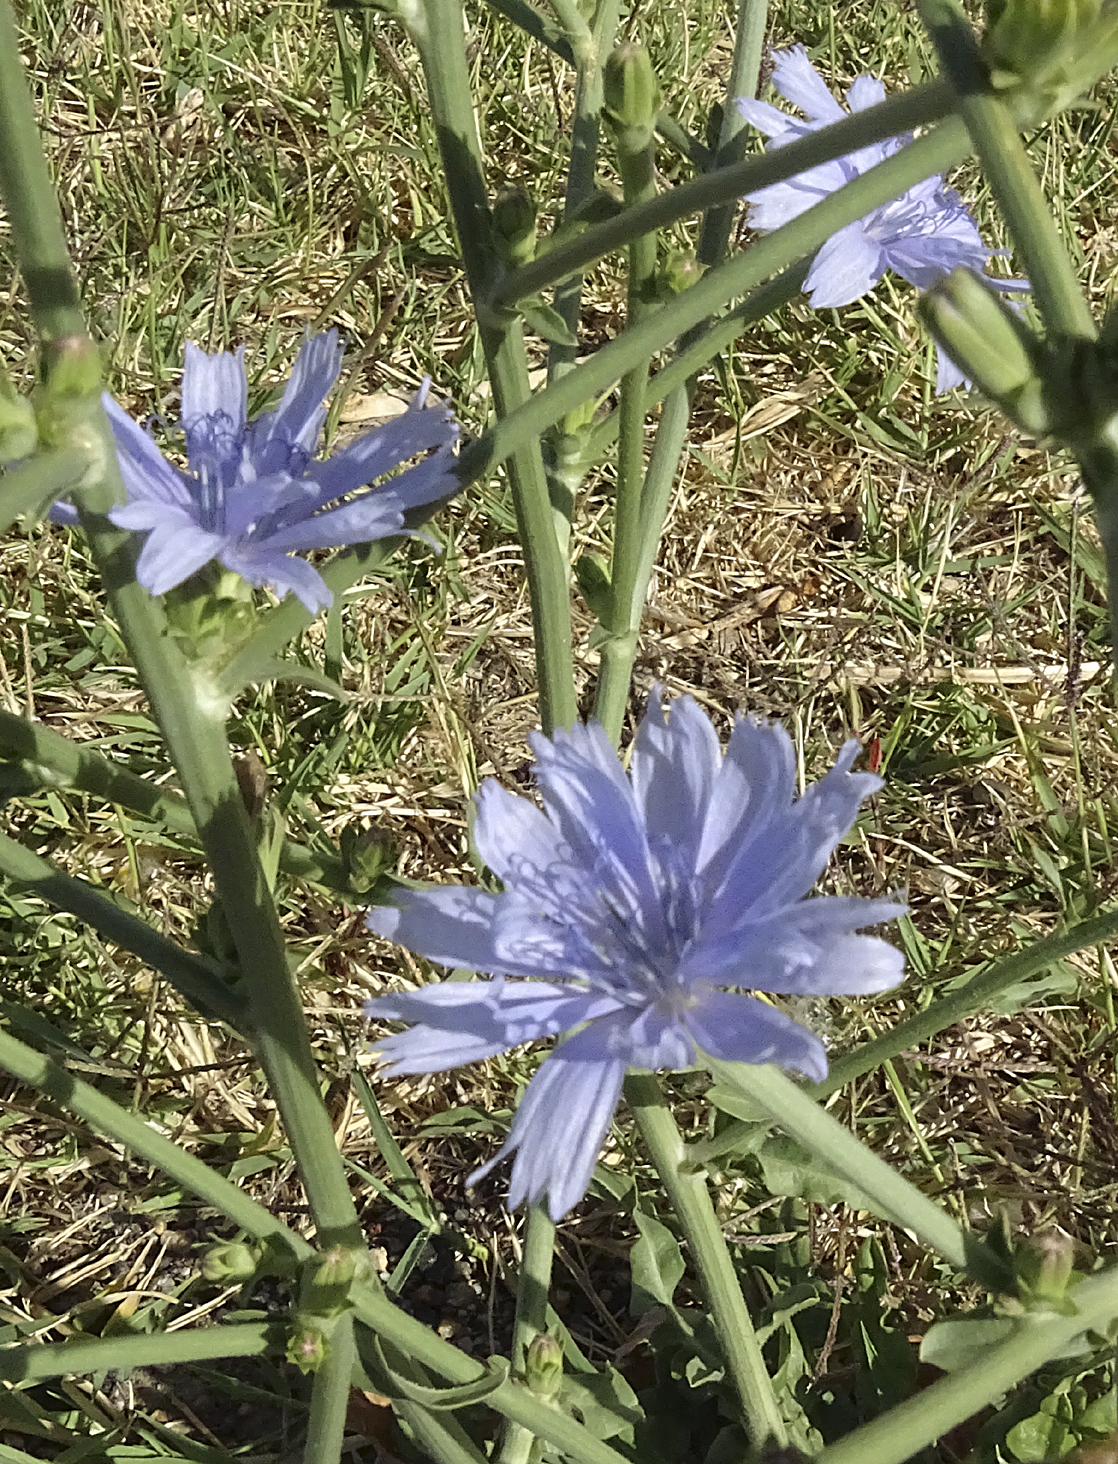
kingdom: Plantae
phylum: Tracheophyta
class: Magnoliopsida
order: Asterales
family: Asteraceae
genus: Cichorium
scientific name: Cichorium intybus
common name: Chicory
